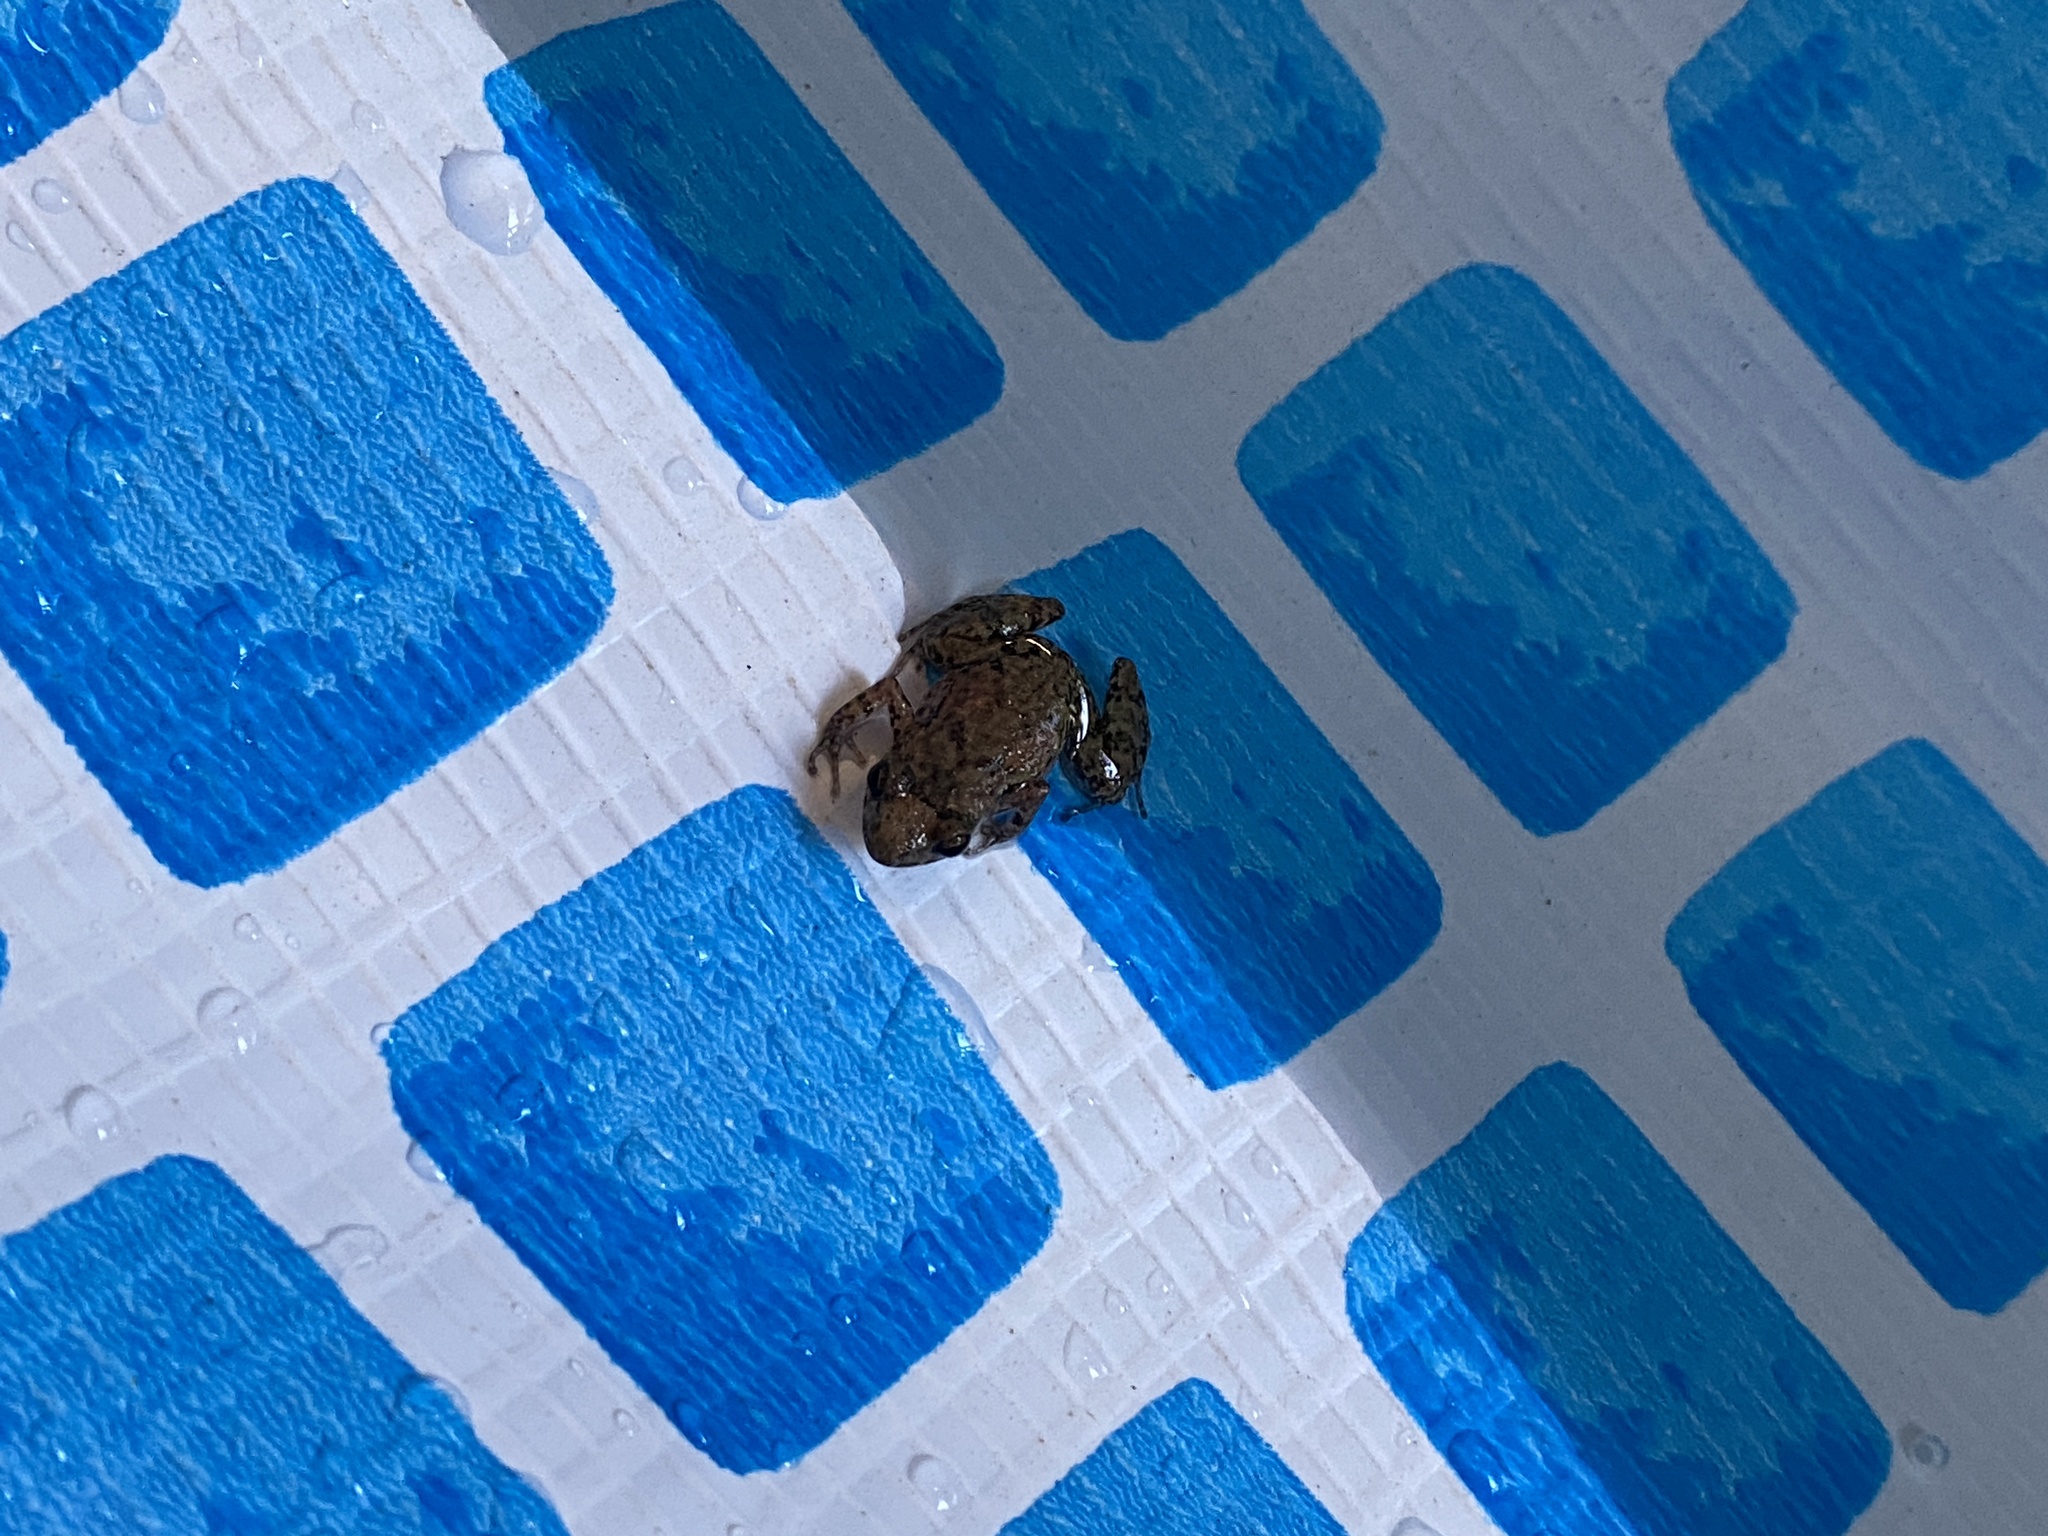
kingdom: Animalia
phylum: Chordata
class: Amphibia
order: Anura
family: Eleutherodactylidae
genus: Eleutherodactylus
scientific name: Eleutherodactylus planirostris
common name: Greenhouse frog
